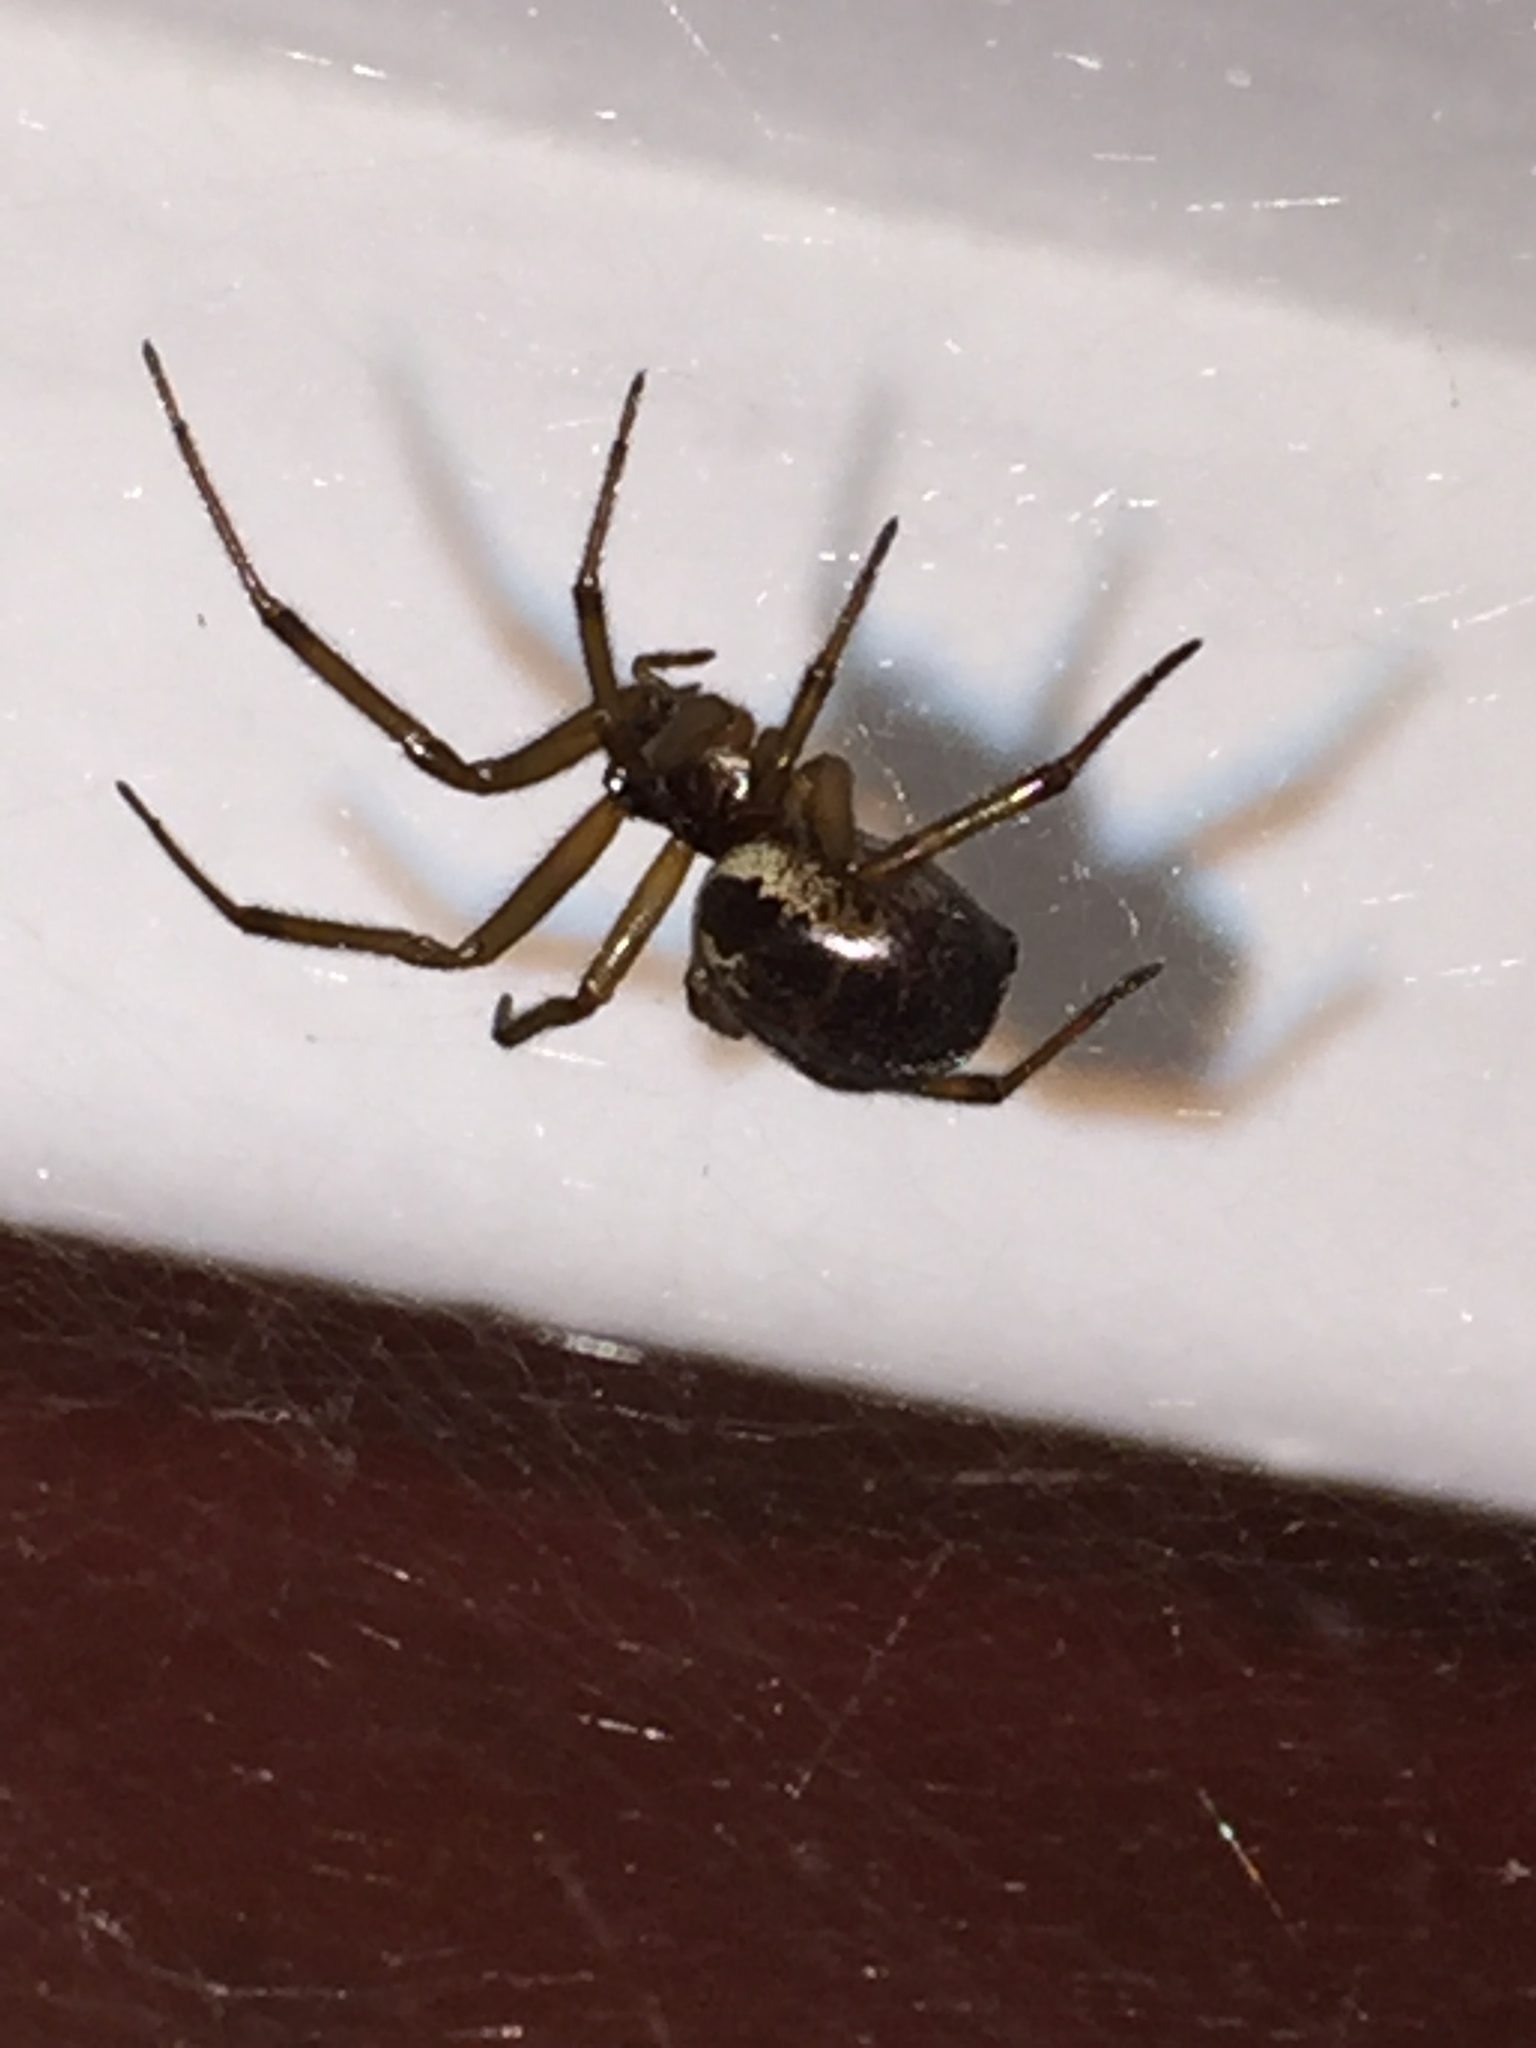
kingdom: Animalia
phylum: Arthropoda
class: Arachnida
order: Araneae
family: Theridiidae
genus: Steatoda
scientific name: Steatoda nobilis
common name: Cobweb weaver
